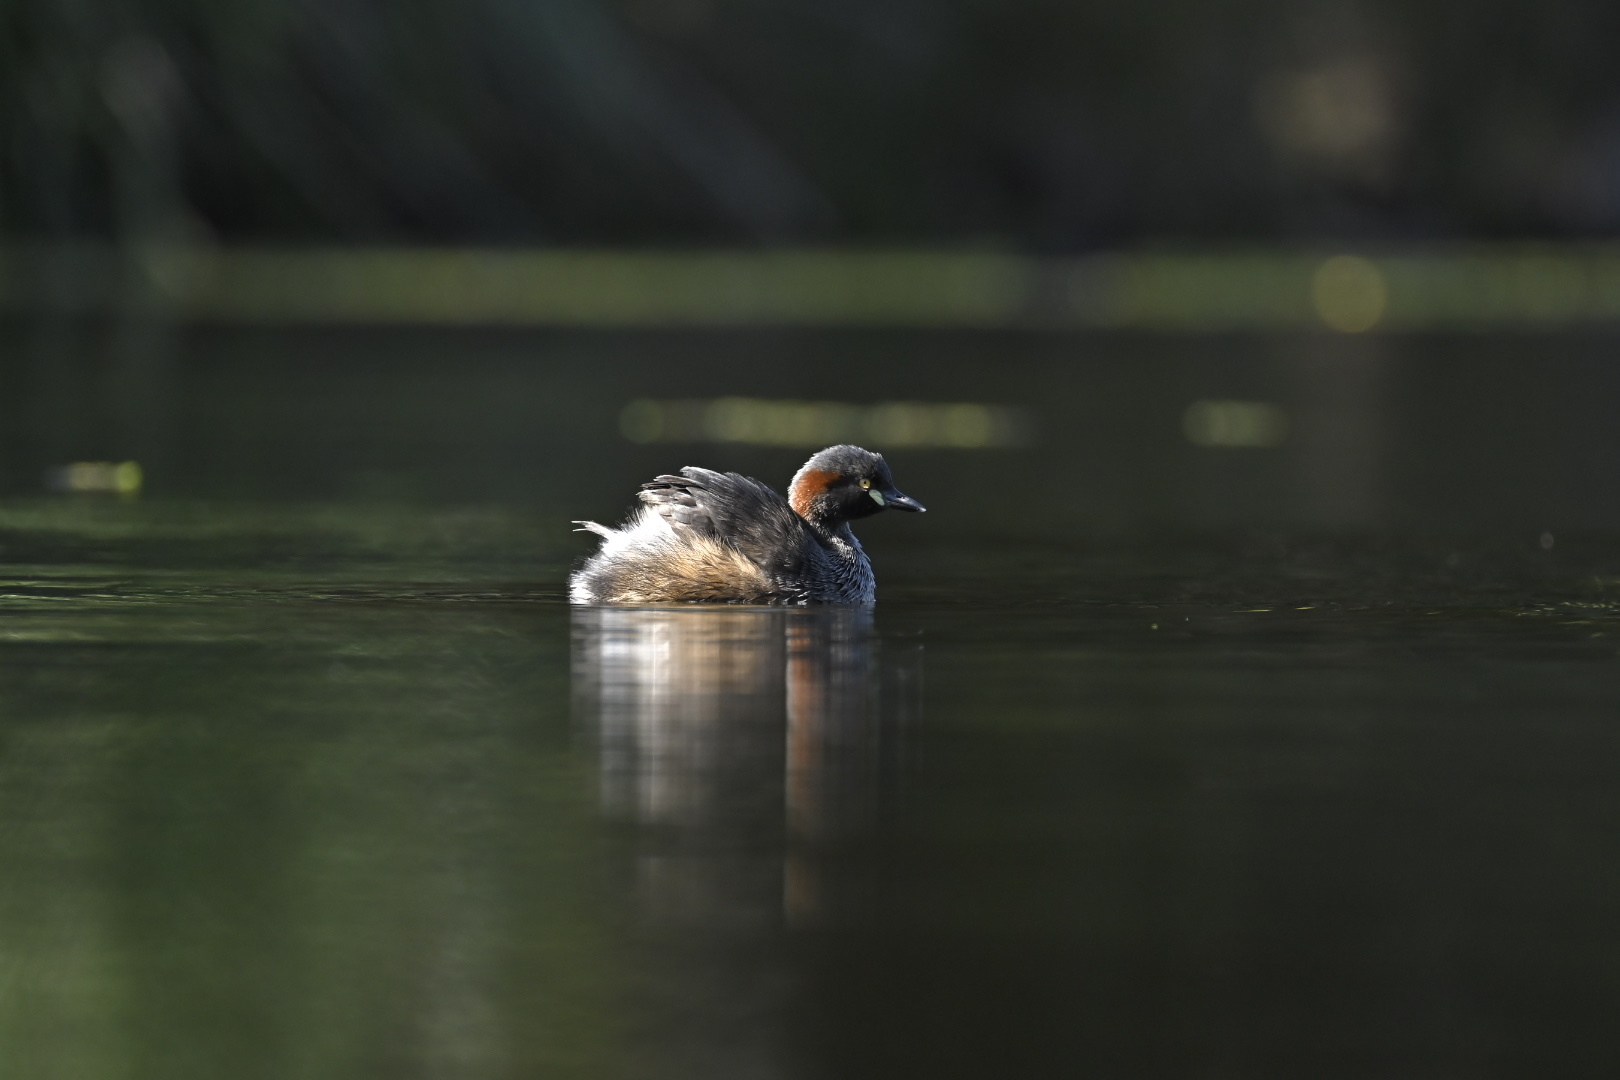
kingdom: Animalia
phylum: Chordata
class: Aves
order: Podicipediformes
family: Podicipedidae
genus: Tachybaptus
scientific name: Tachybaptus novaehollandiae
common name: Australasian grebe
